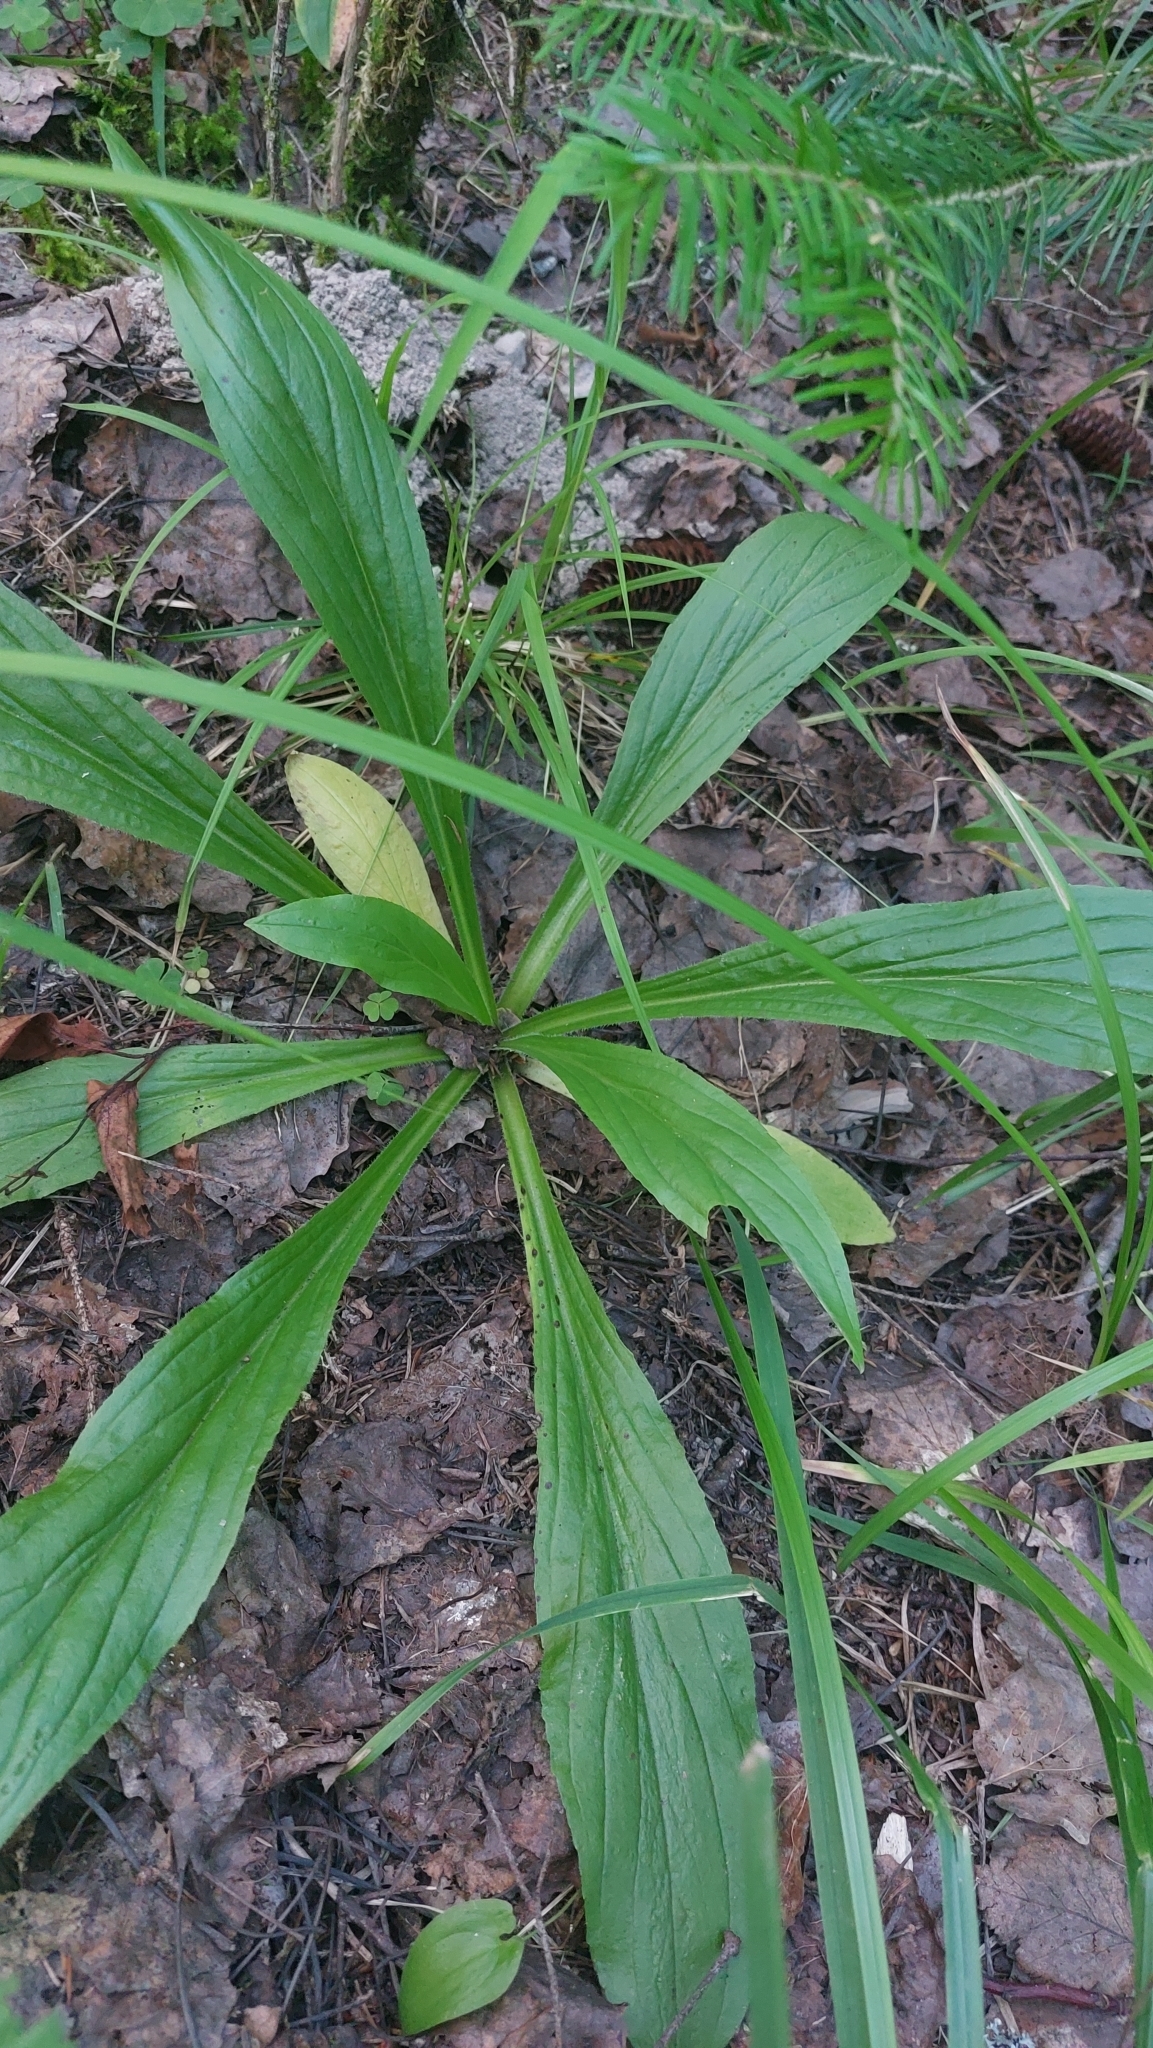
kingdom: Plantae
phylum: Tracheophyta
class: Magnoliopsida
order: Lamiales
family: Plantaginaceae
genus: Digitalis
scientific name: Digitalis grandiflora
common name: Yellow foxglove
